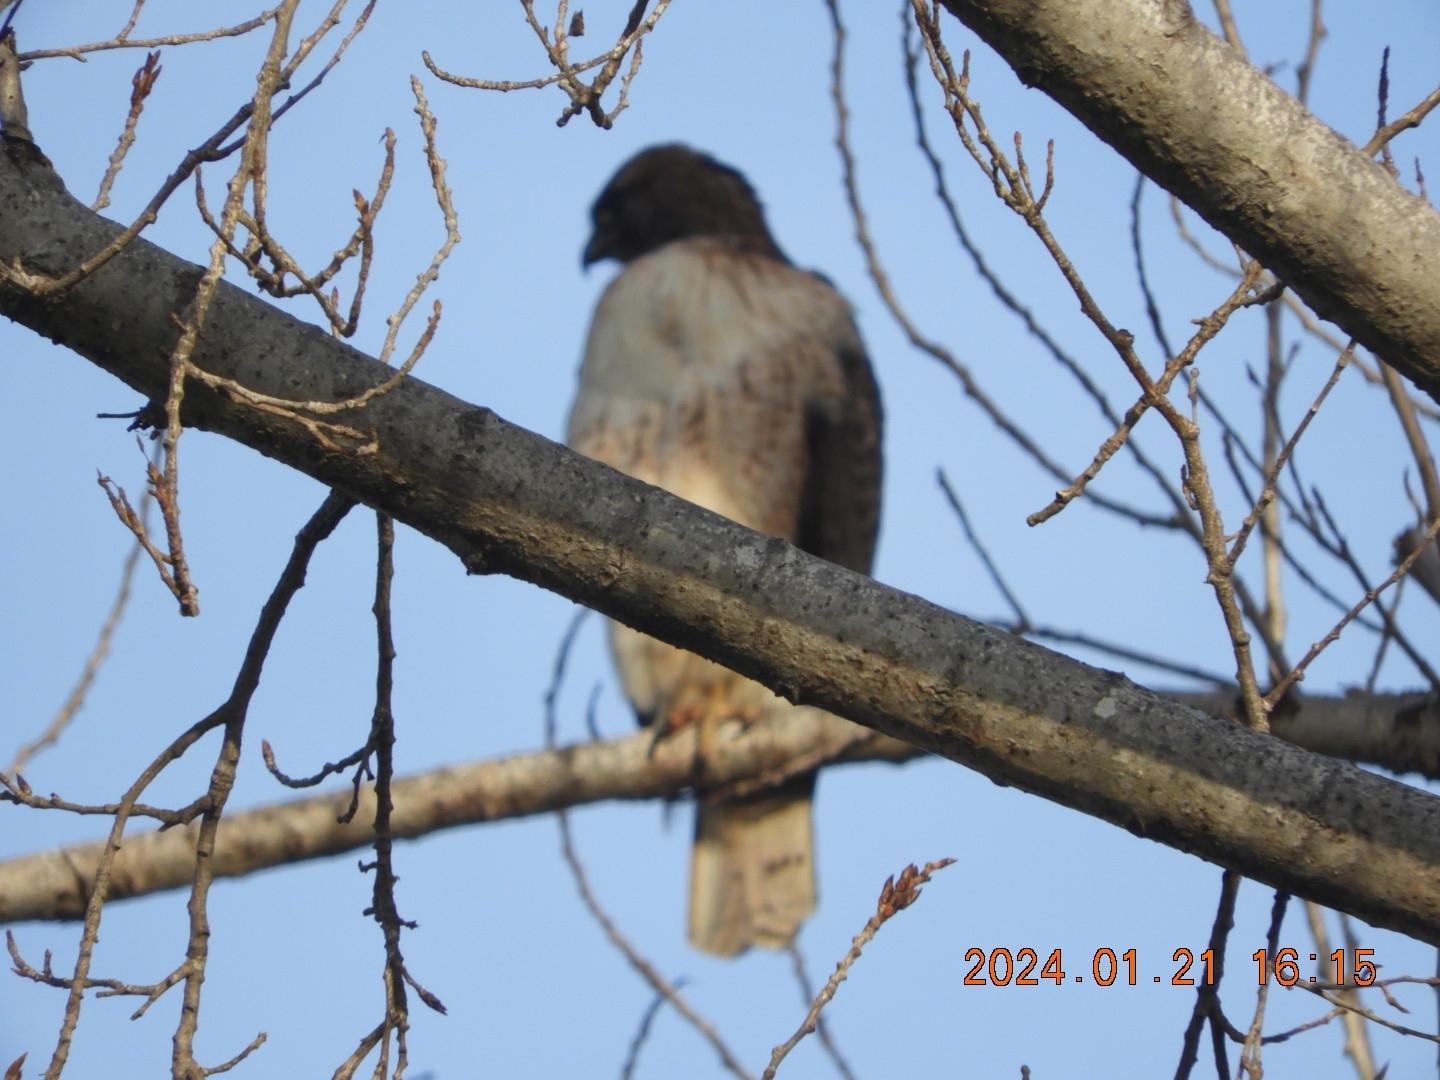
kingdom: Animalia
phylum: Chordata
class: Aves
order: Accipitriformes
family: Accipitridae
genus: Buteo
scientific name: Buteo jamaicensis
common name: Red-tailed hawk
